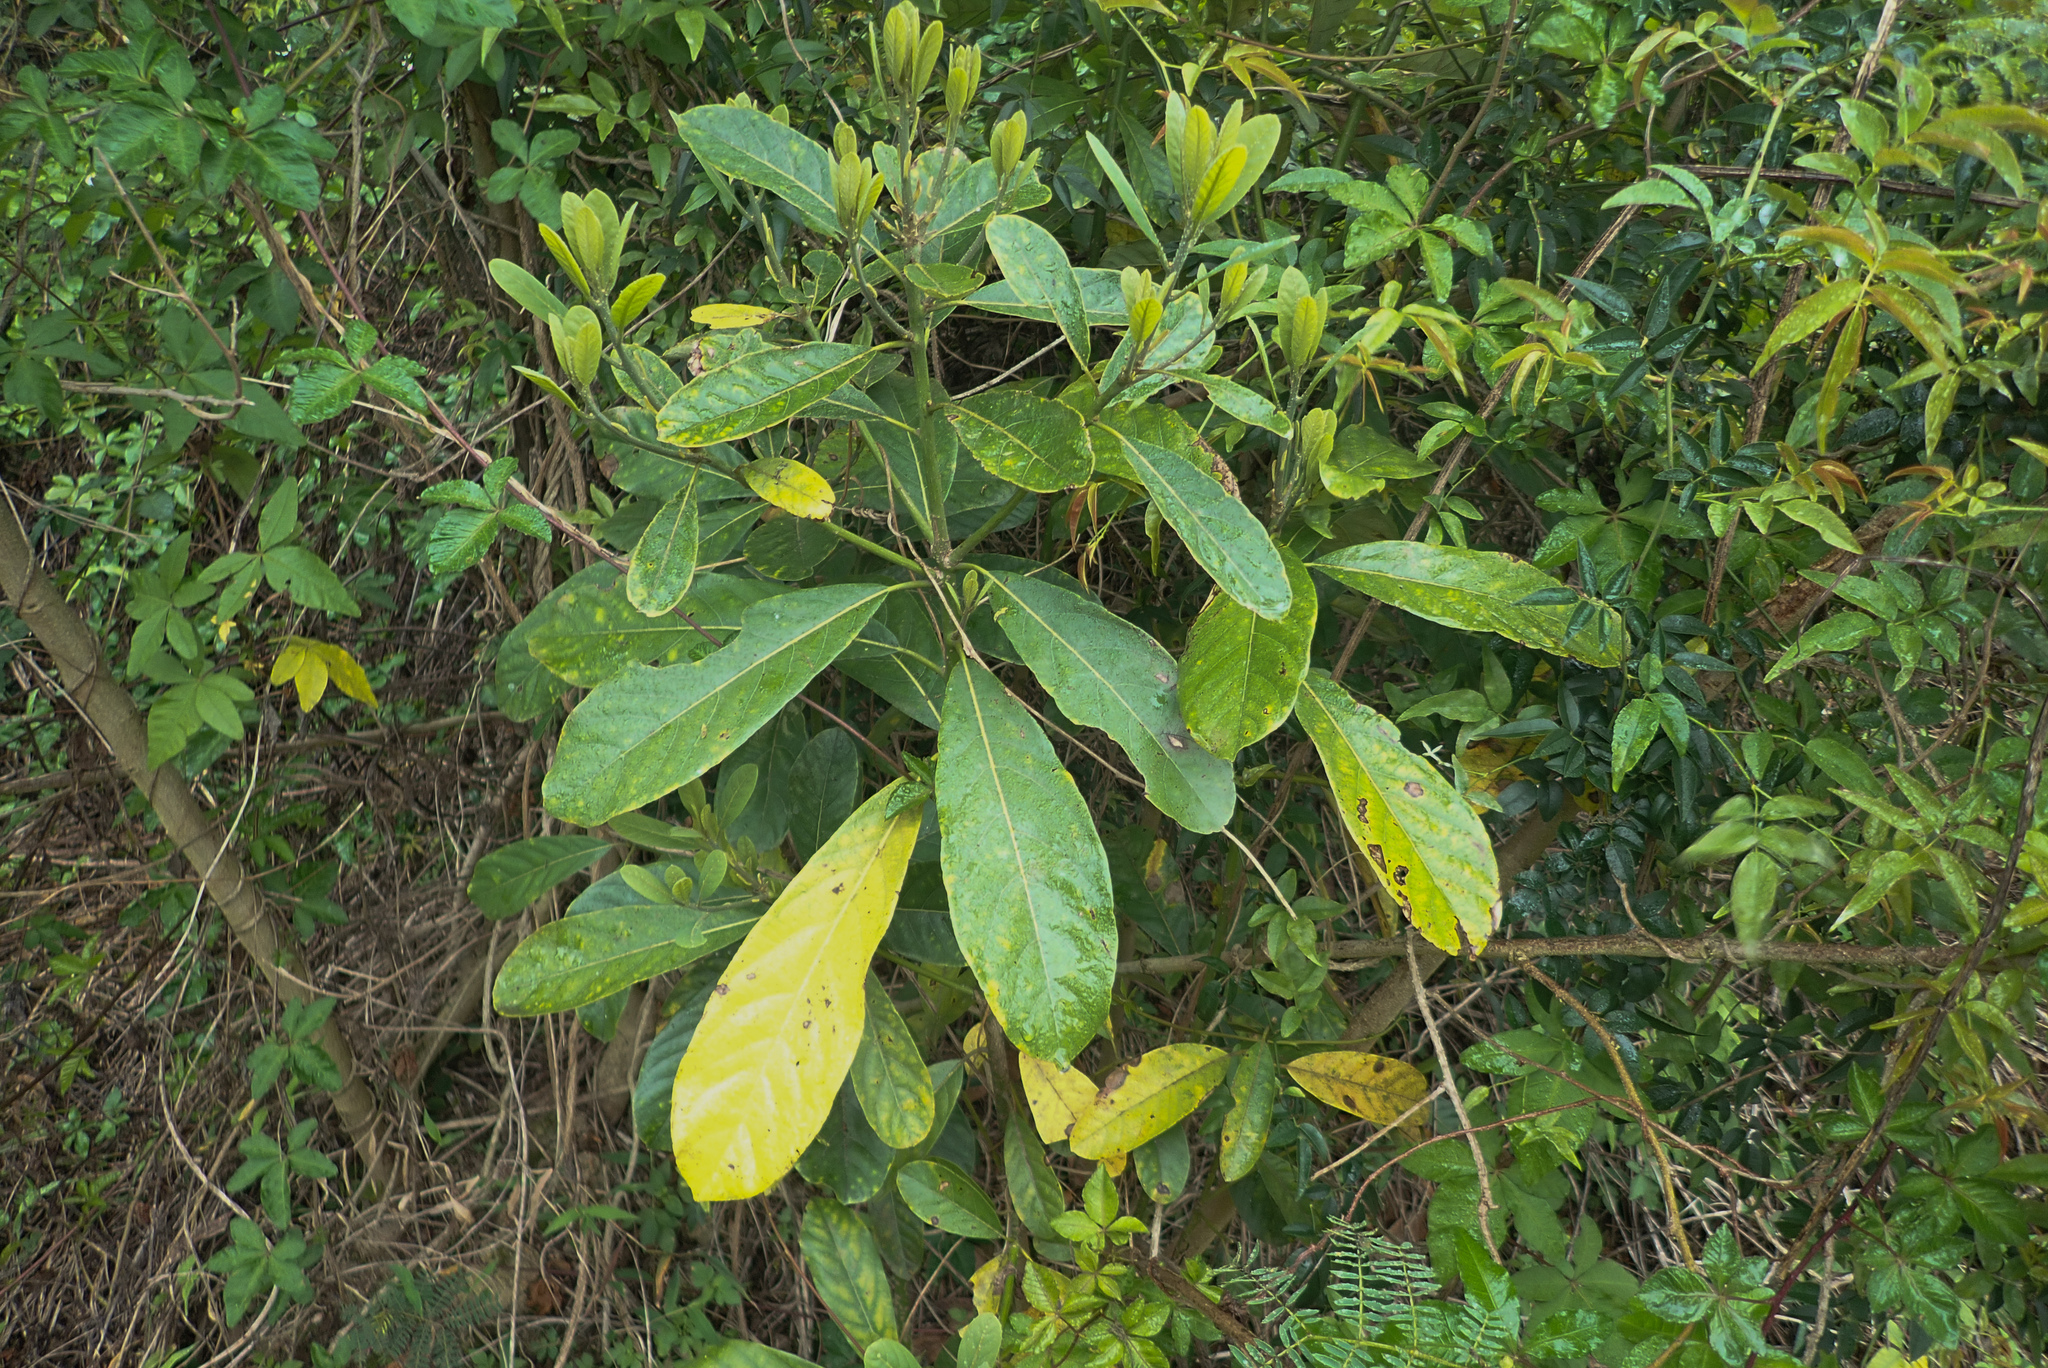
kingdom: Plantae
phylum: Tracheophyta
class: Magnoliopsida
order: Laurales
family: Lauraceae
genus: Litsea
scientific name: Litsea glutinosa
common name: Indian-laurel
